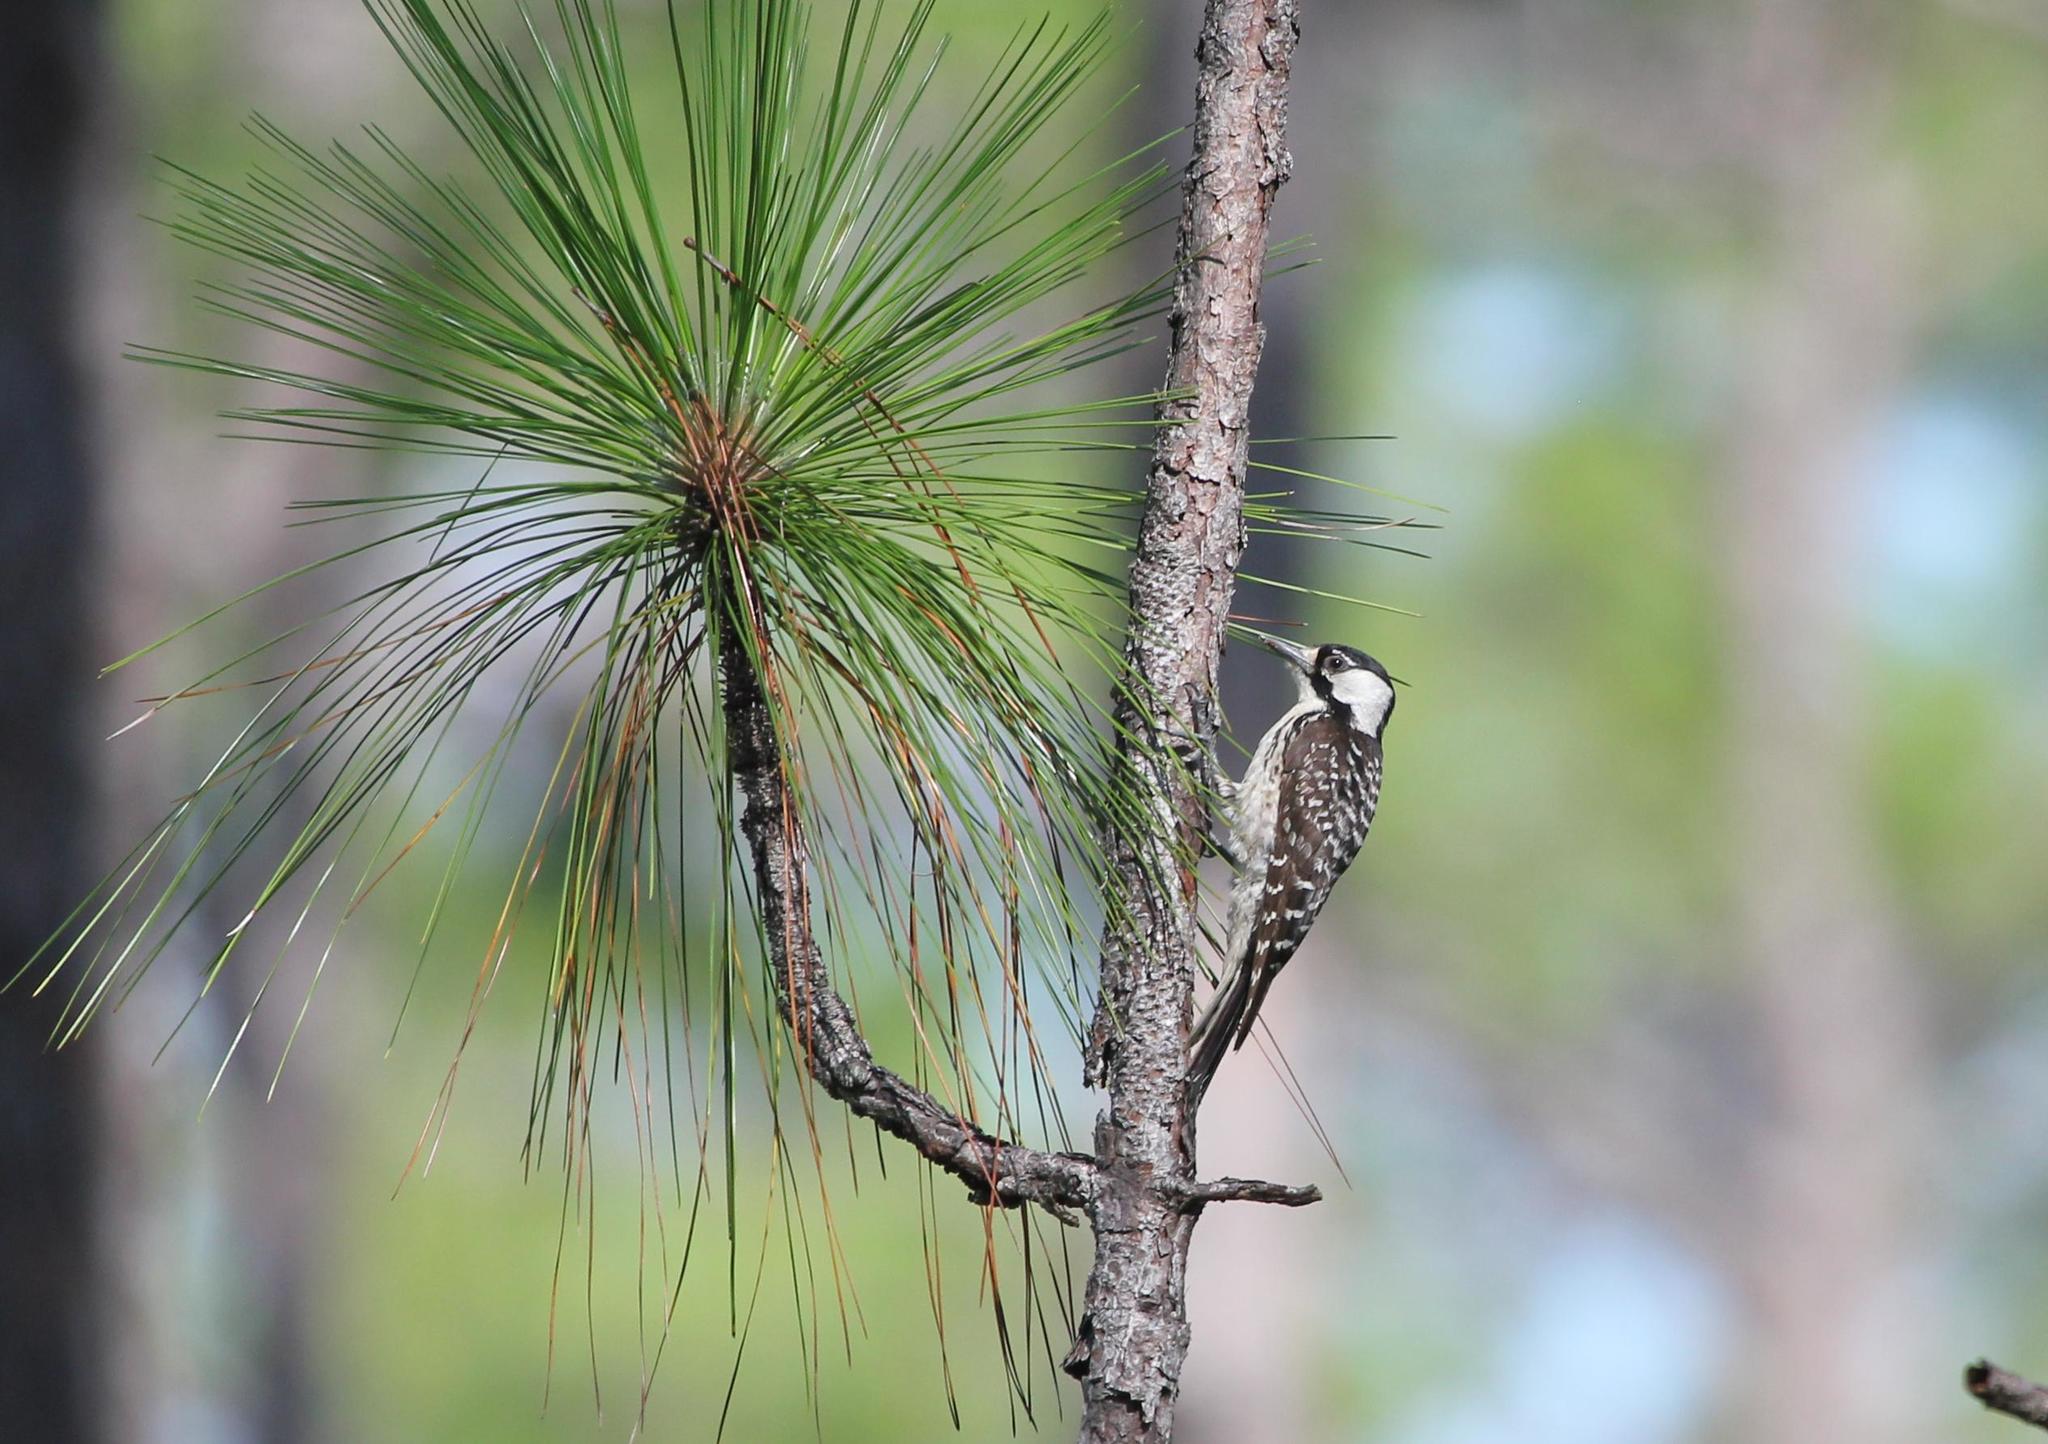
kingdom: Animalia
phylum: Chordata
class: Aves
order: Piciformes
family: Picidae
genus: Leuconotopicus
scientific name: Leuconotopicus borealis
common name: Red-cockaded woodpecker
